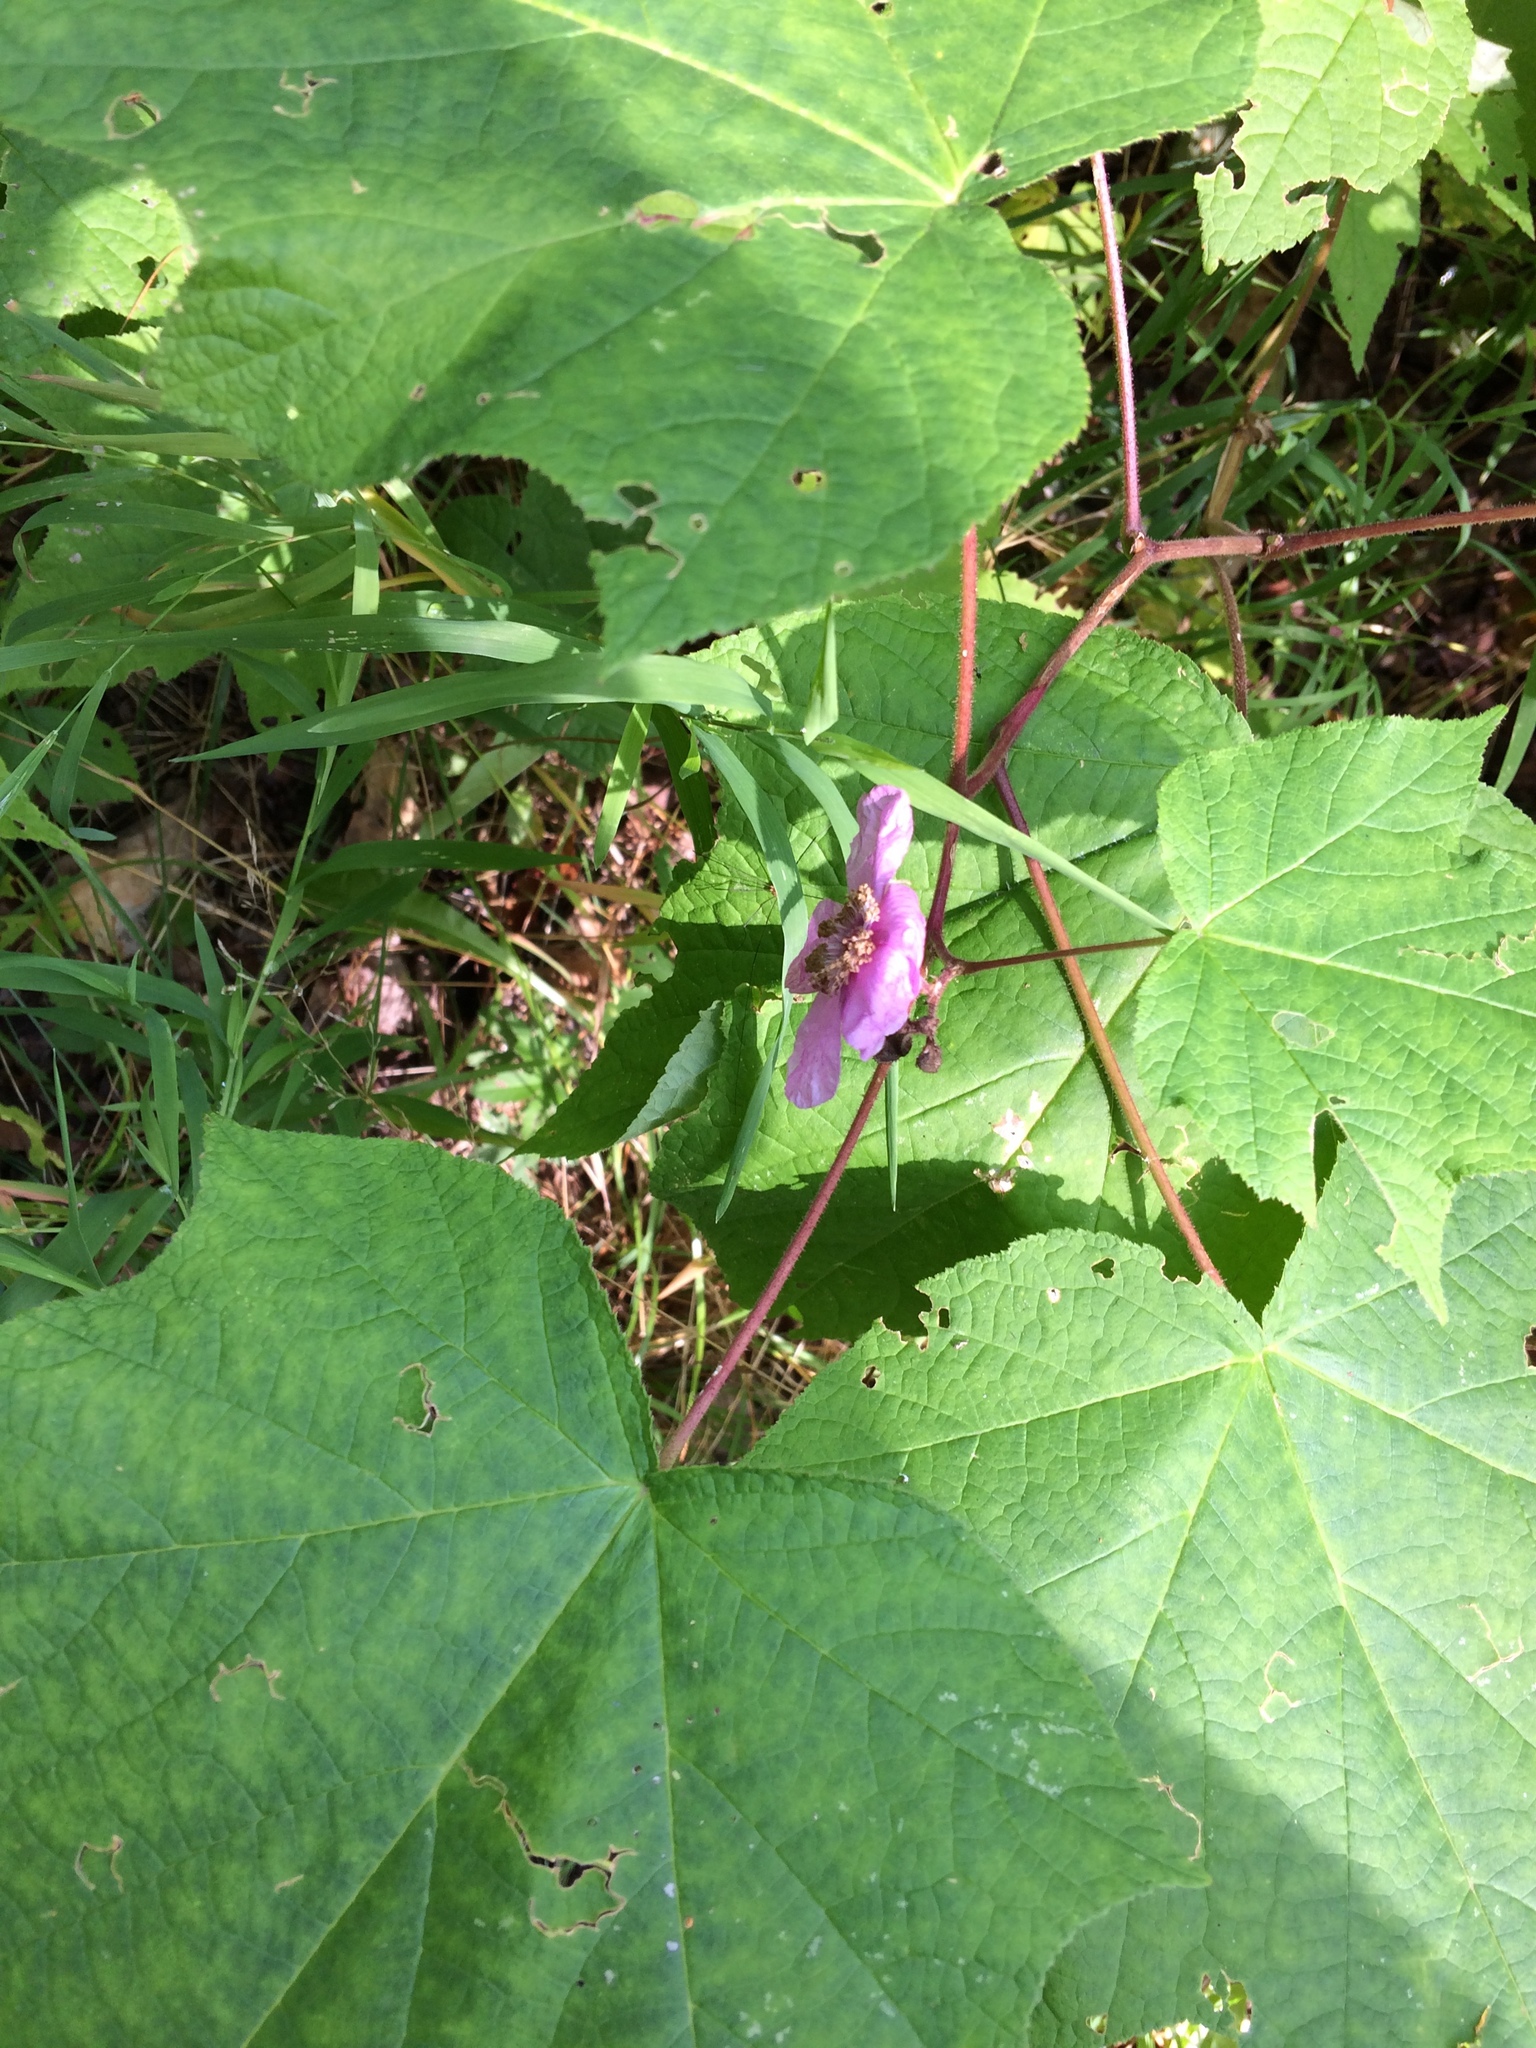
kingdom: Plantae
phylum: Tracheophyta
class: Magnoliopsida
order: Rosales
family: Rosaceae
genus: Rubus
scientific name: Rubus odoratus
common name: Purple-flowered raspberry
